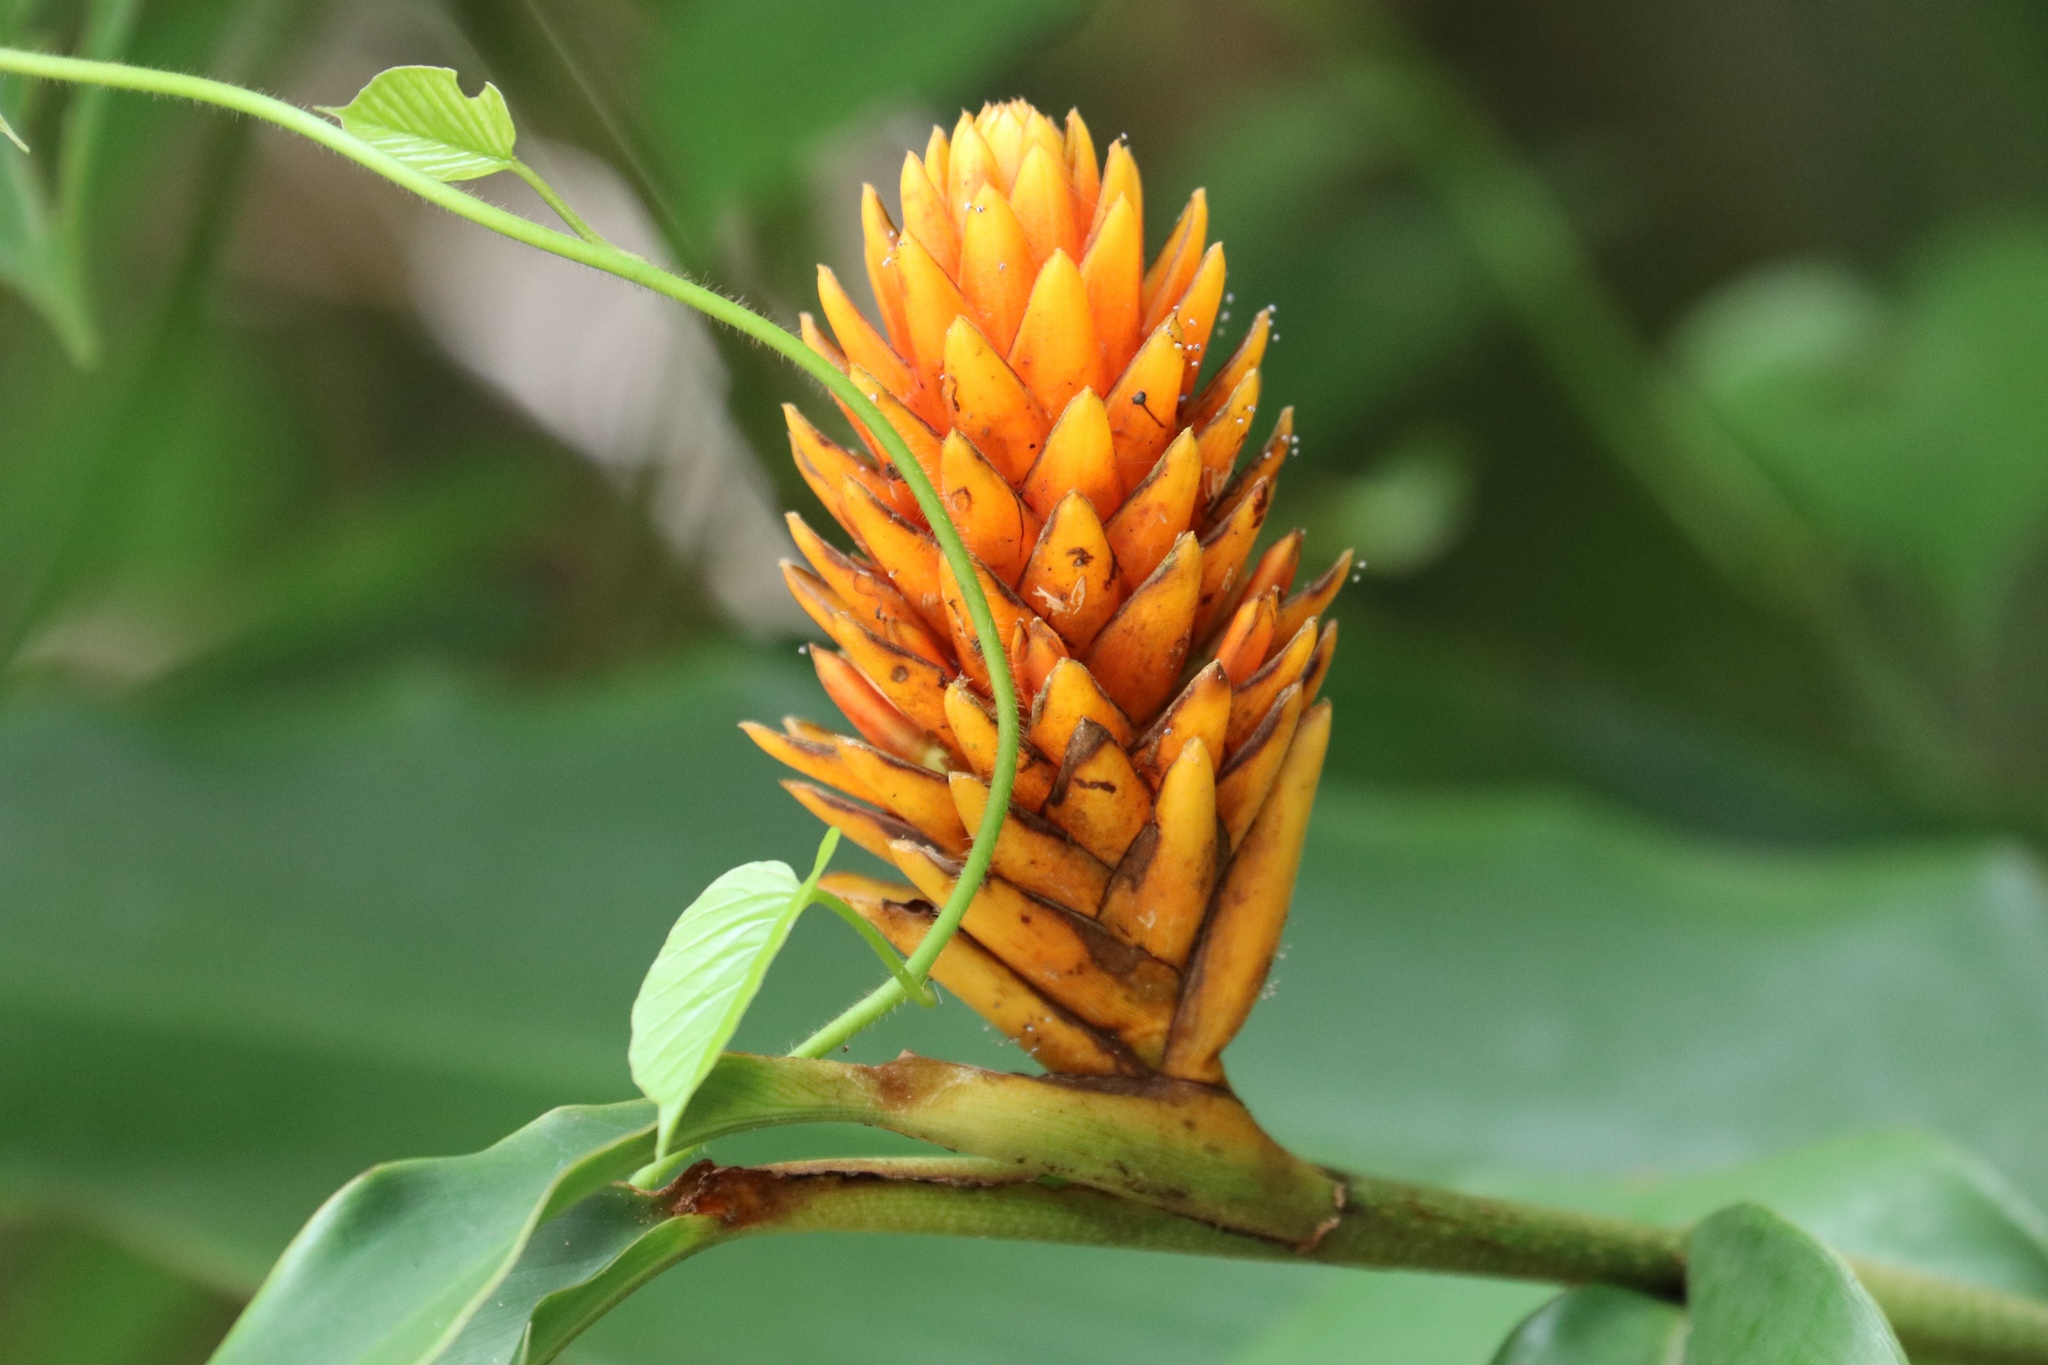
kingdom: Plantae
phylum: Tracheophyta
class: Liliopsida
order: Zingiberales
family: Zingiberaceae
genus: Renealmia
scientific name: Renealmia cernua
